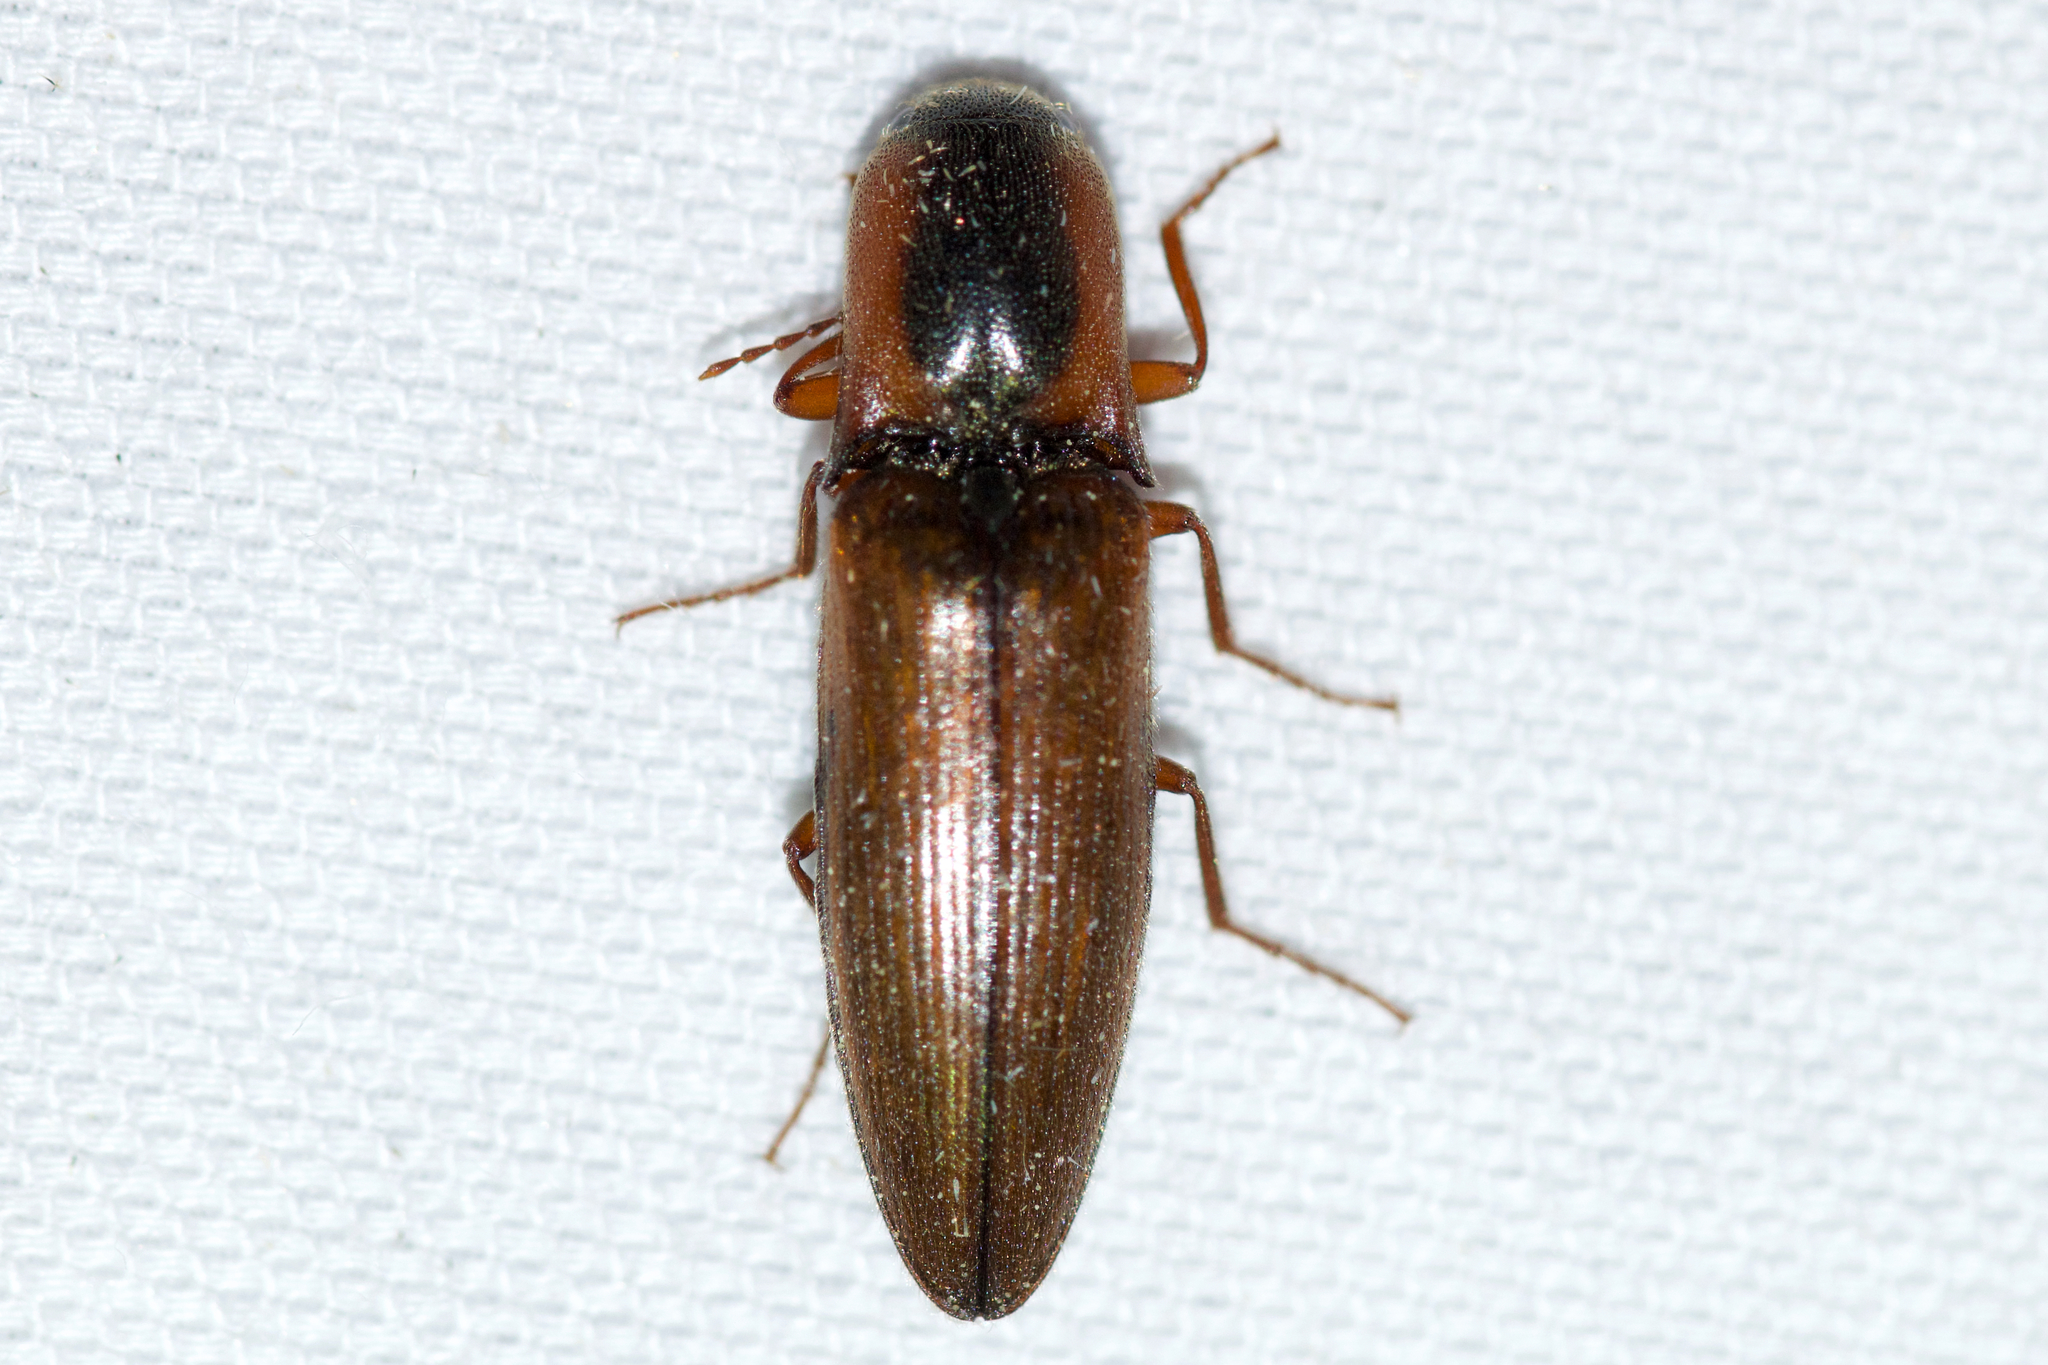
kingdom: Animalia
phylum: Arthropoda
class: Insecta
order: Coleoptera
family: Elateridae
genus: Agriotes
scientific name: Agriotes collaris
